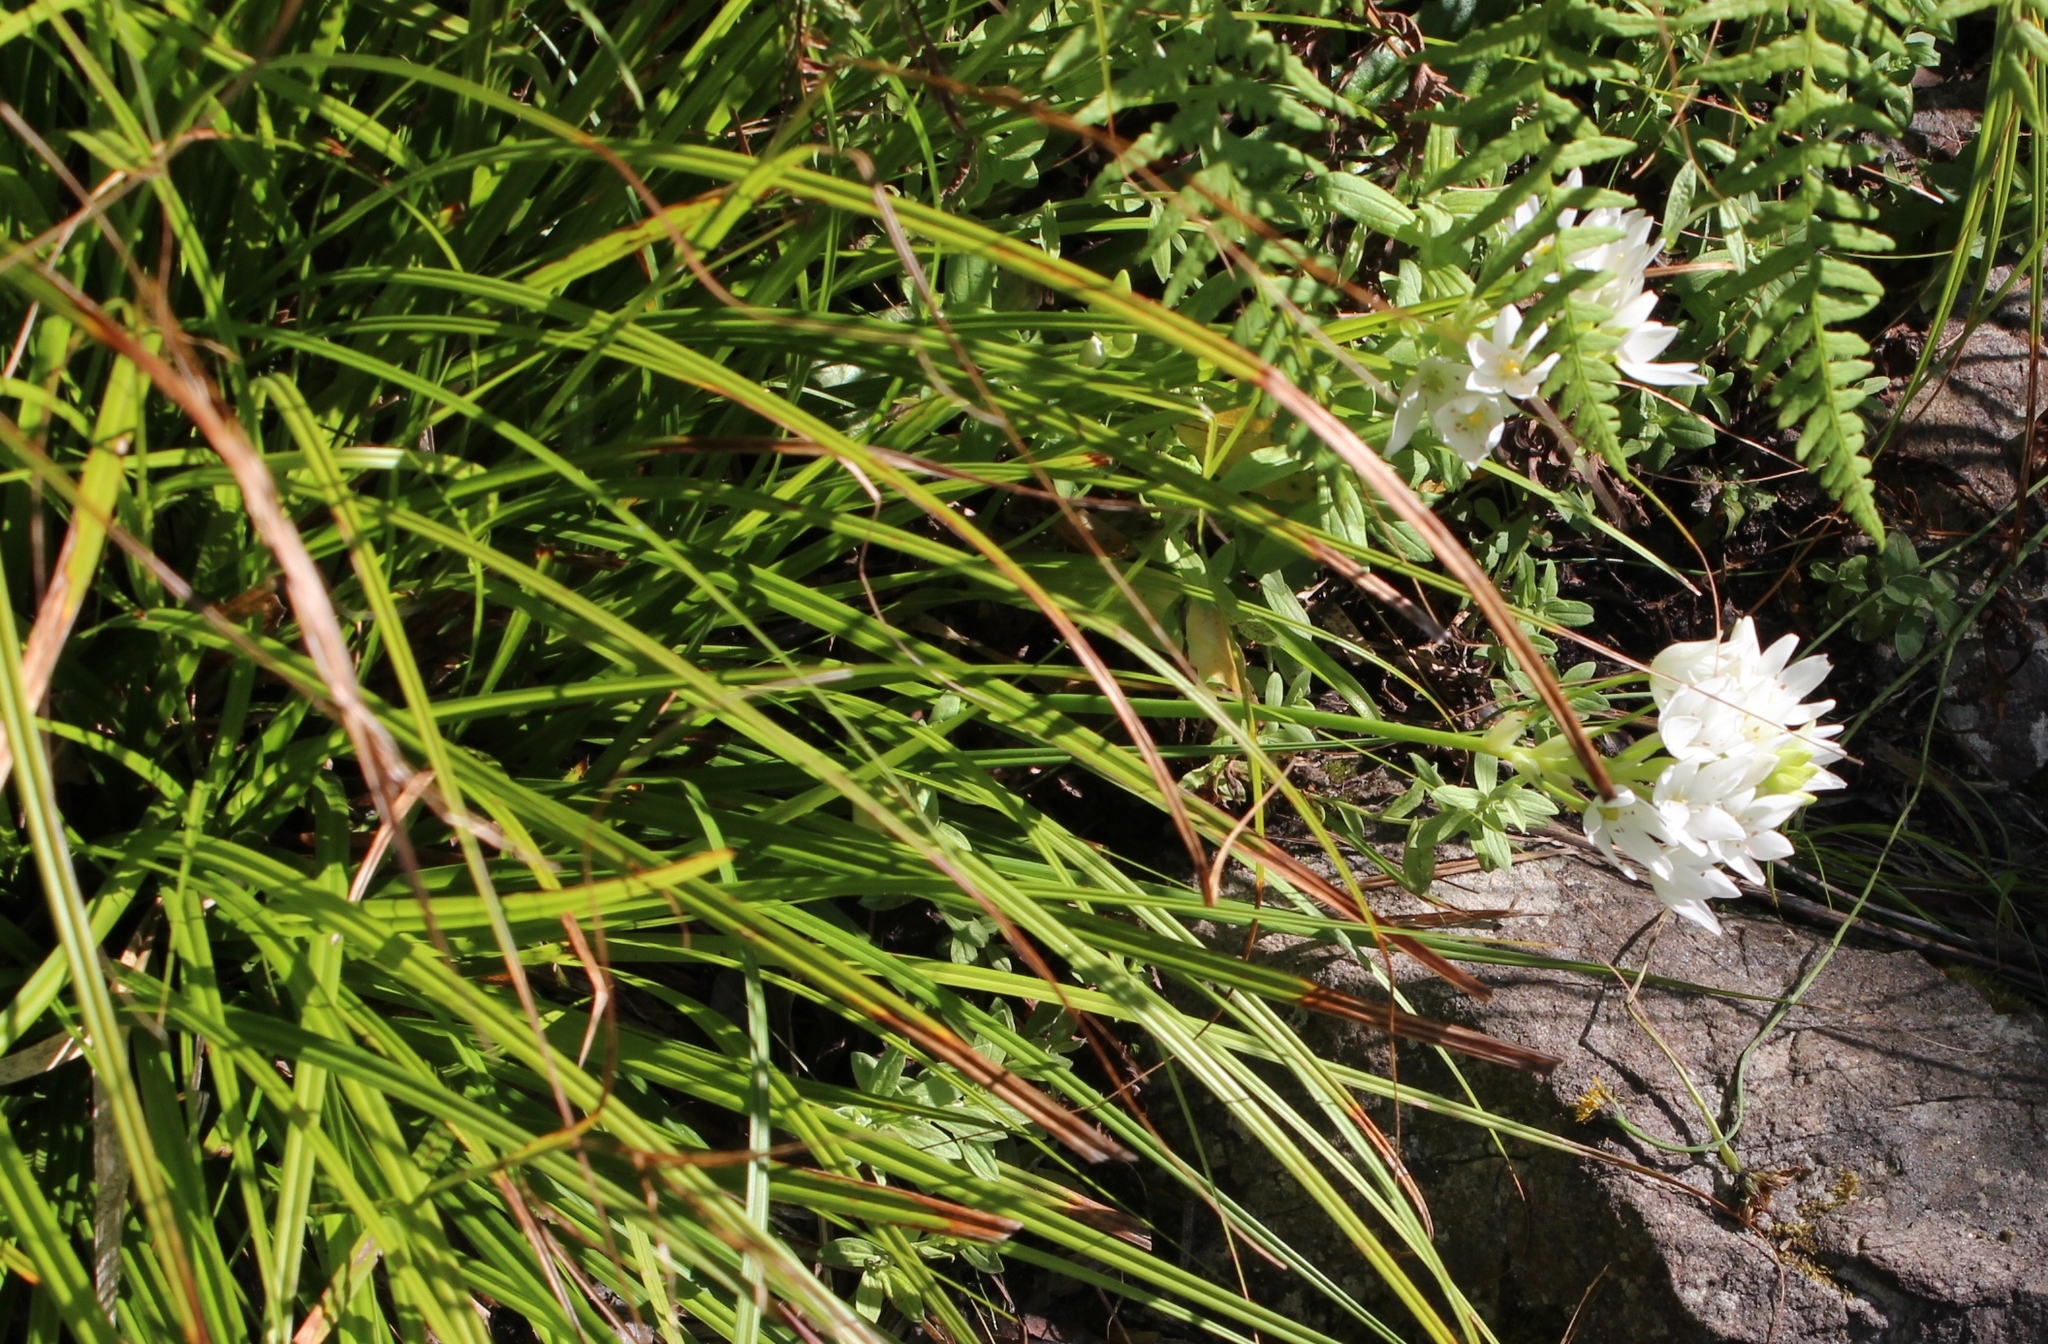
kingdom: Plantae
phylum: Tracheophyta
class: Liliopsida
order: Asparagales
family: Asparagaceae
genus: Ornithogalum
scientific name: Ornithogalum thyrsoides
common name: Chincherinchee
